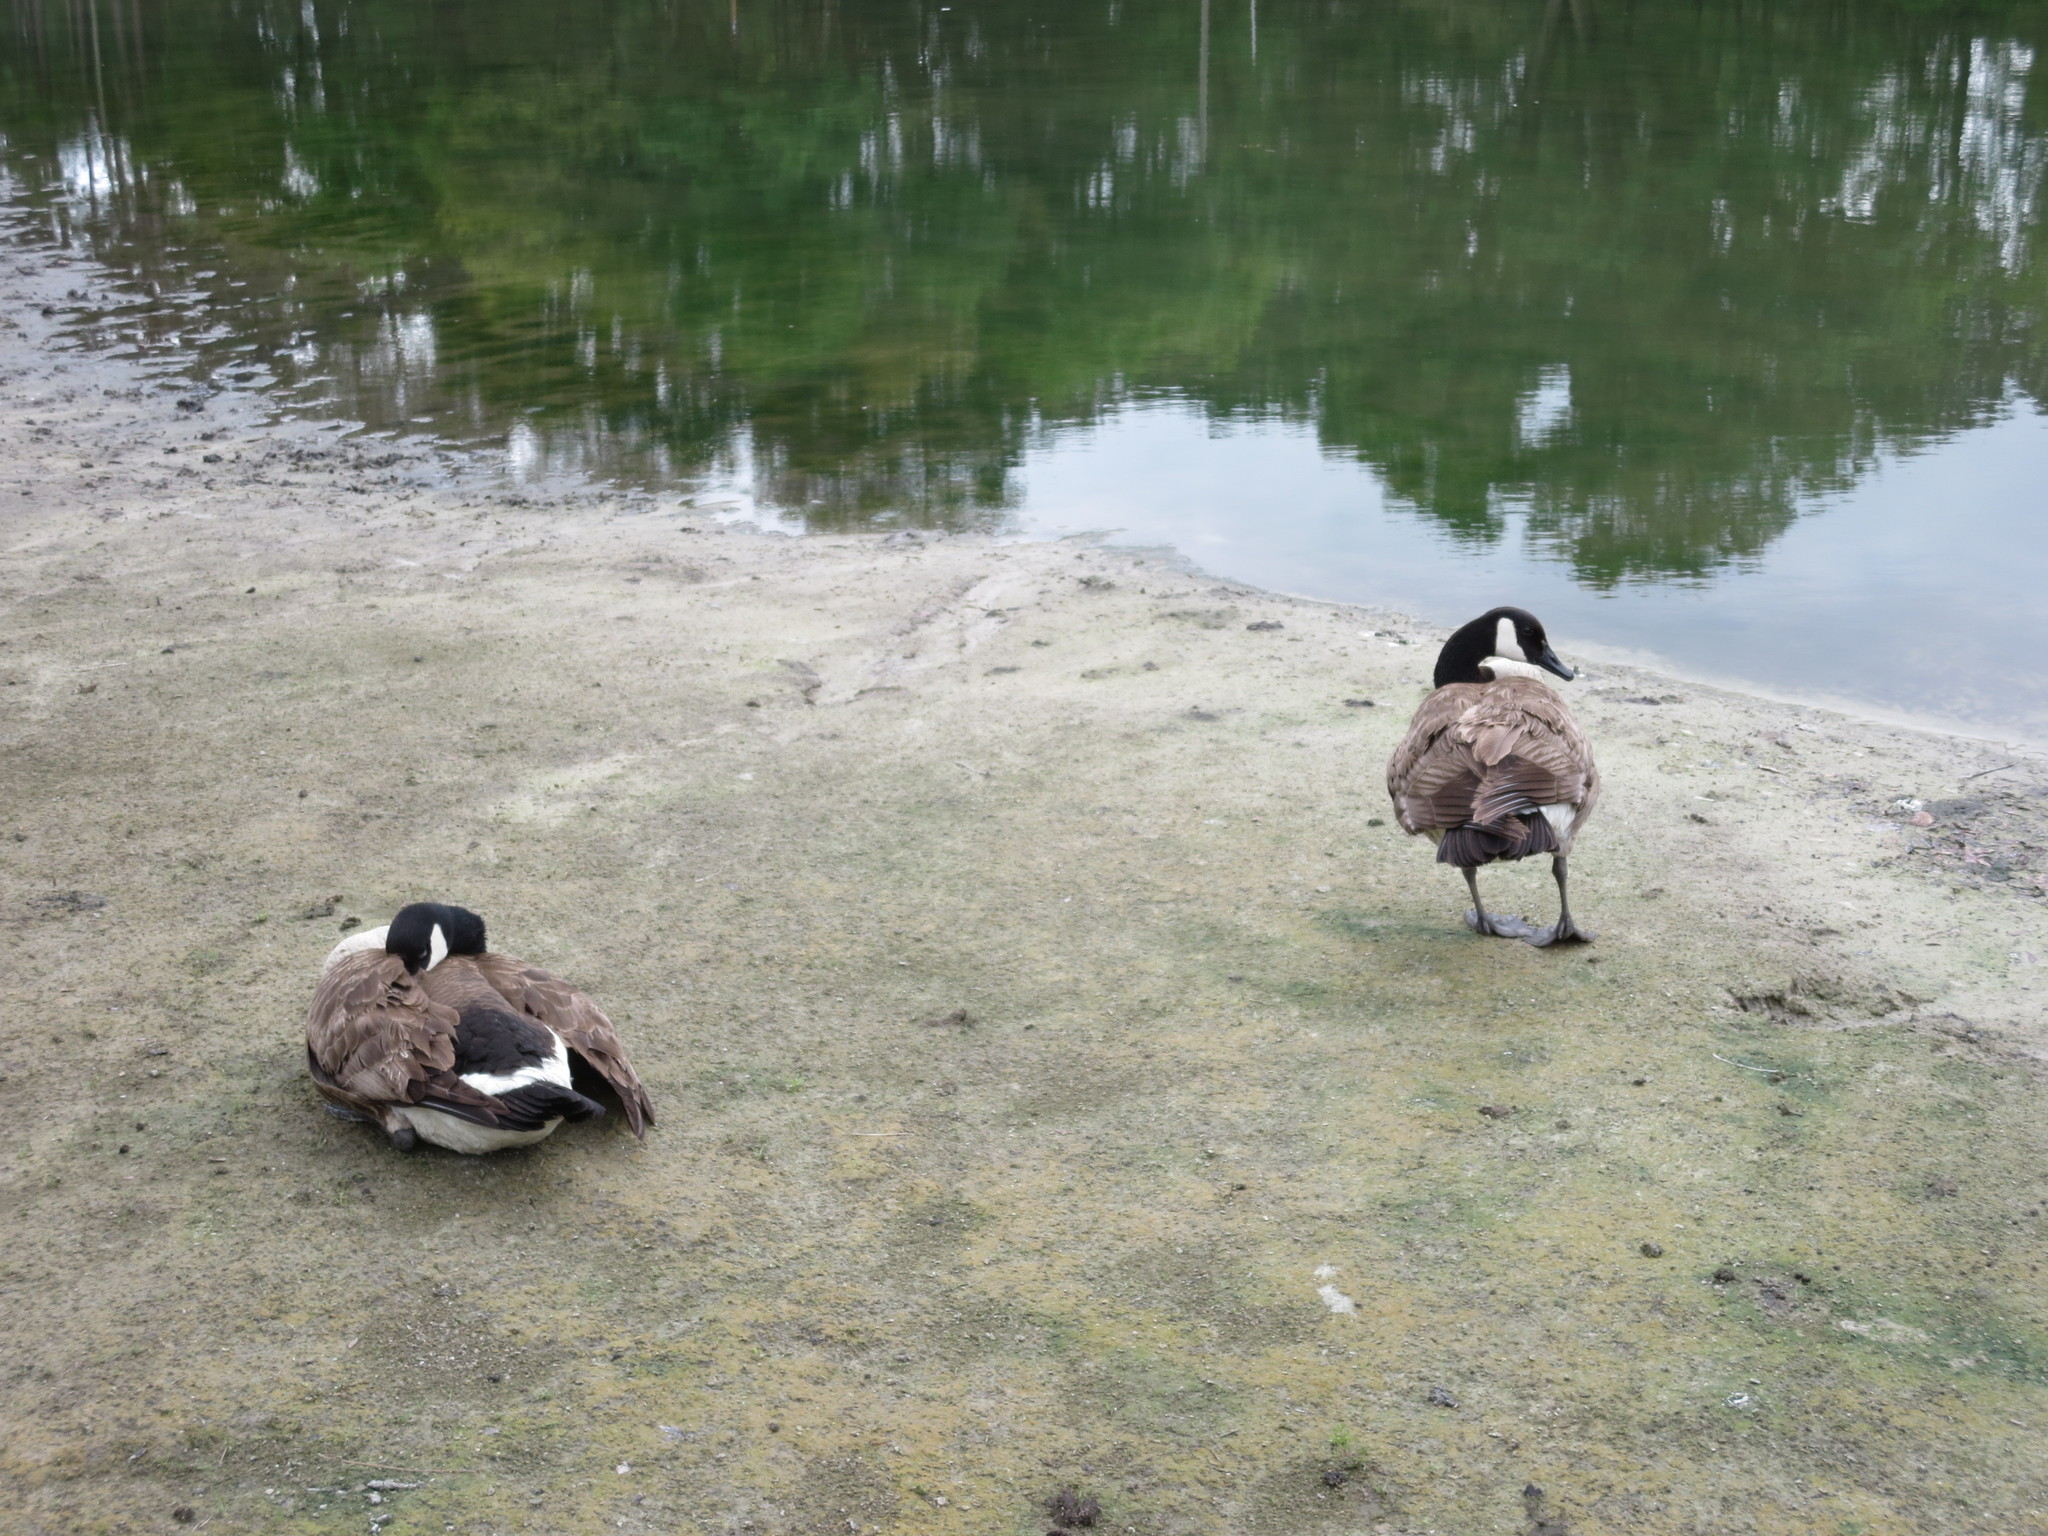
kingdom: Animalia
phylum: Chordata
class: Aves
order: Anseriformes
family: Anatidae
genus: Branta
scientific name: Branta canadensis
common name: Canada goose
